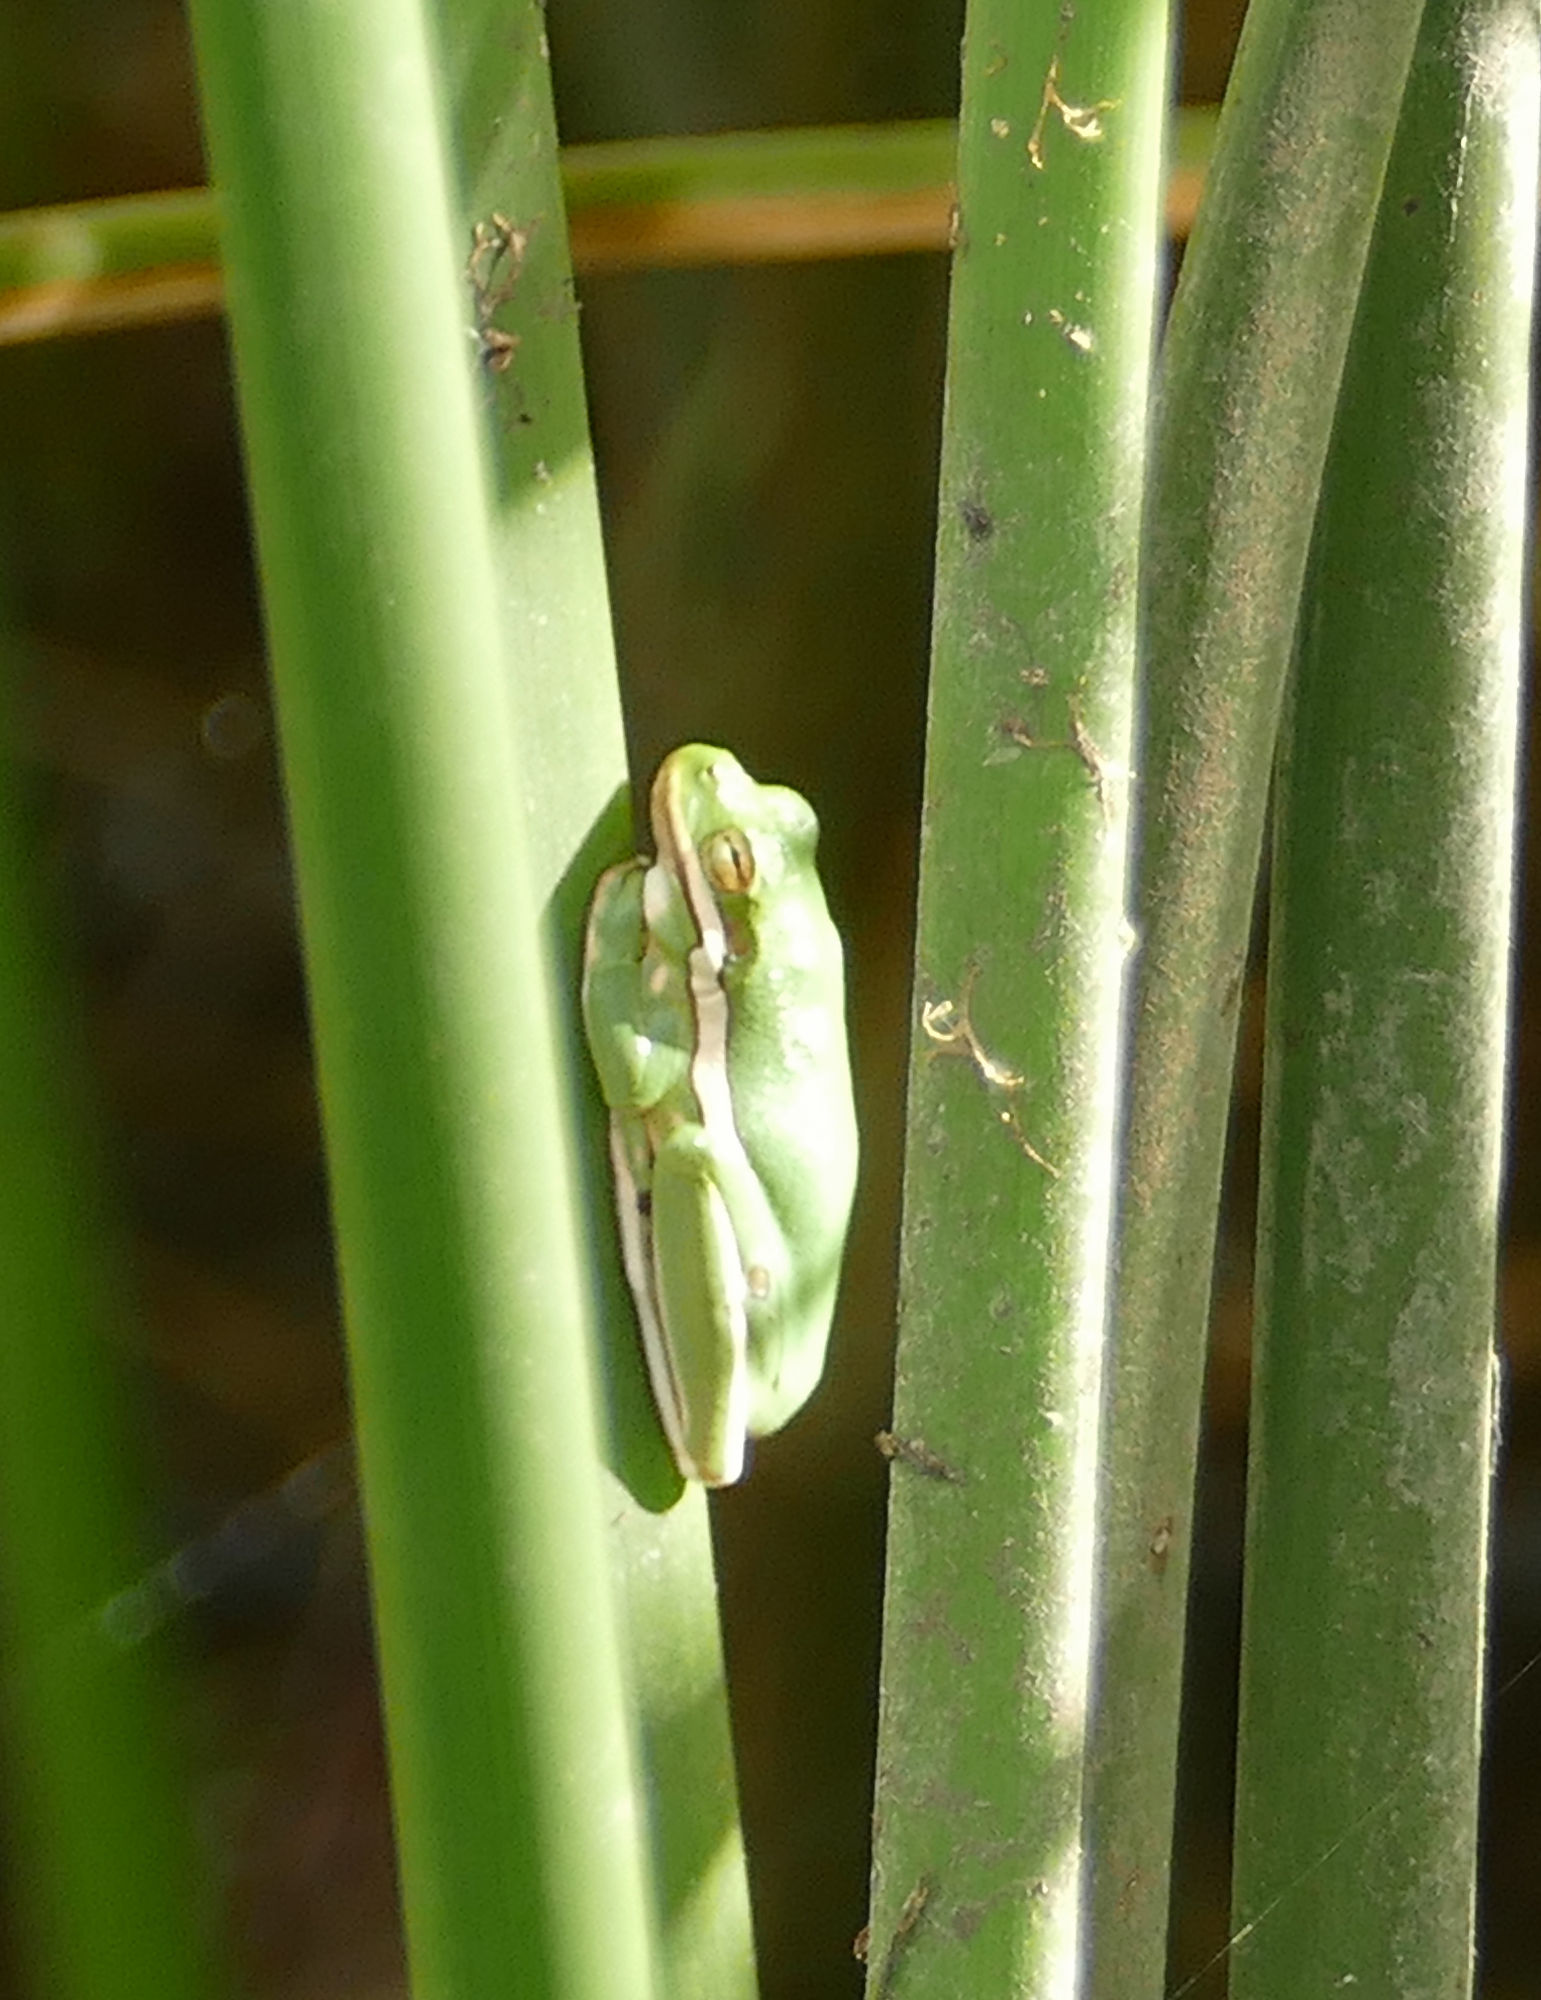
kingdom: Animalia
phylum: Chordata
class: Amphibia
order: Anura
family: Hylidae
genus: Dryophytes
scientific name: Dryophytes cinereus
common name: Green treefrog
